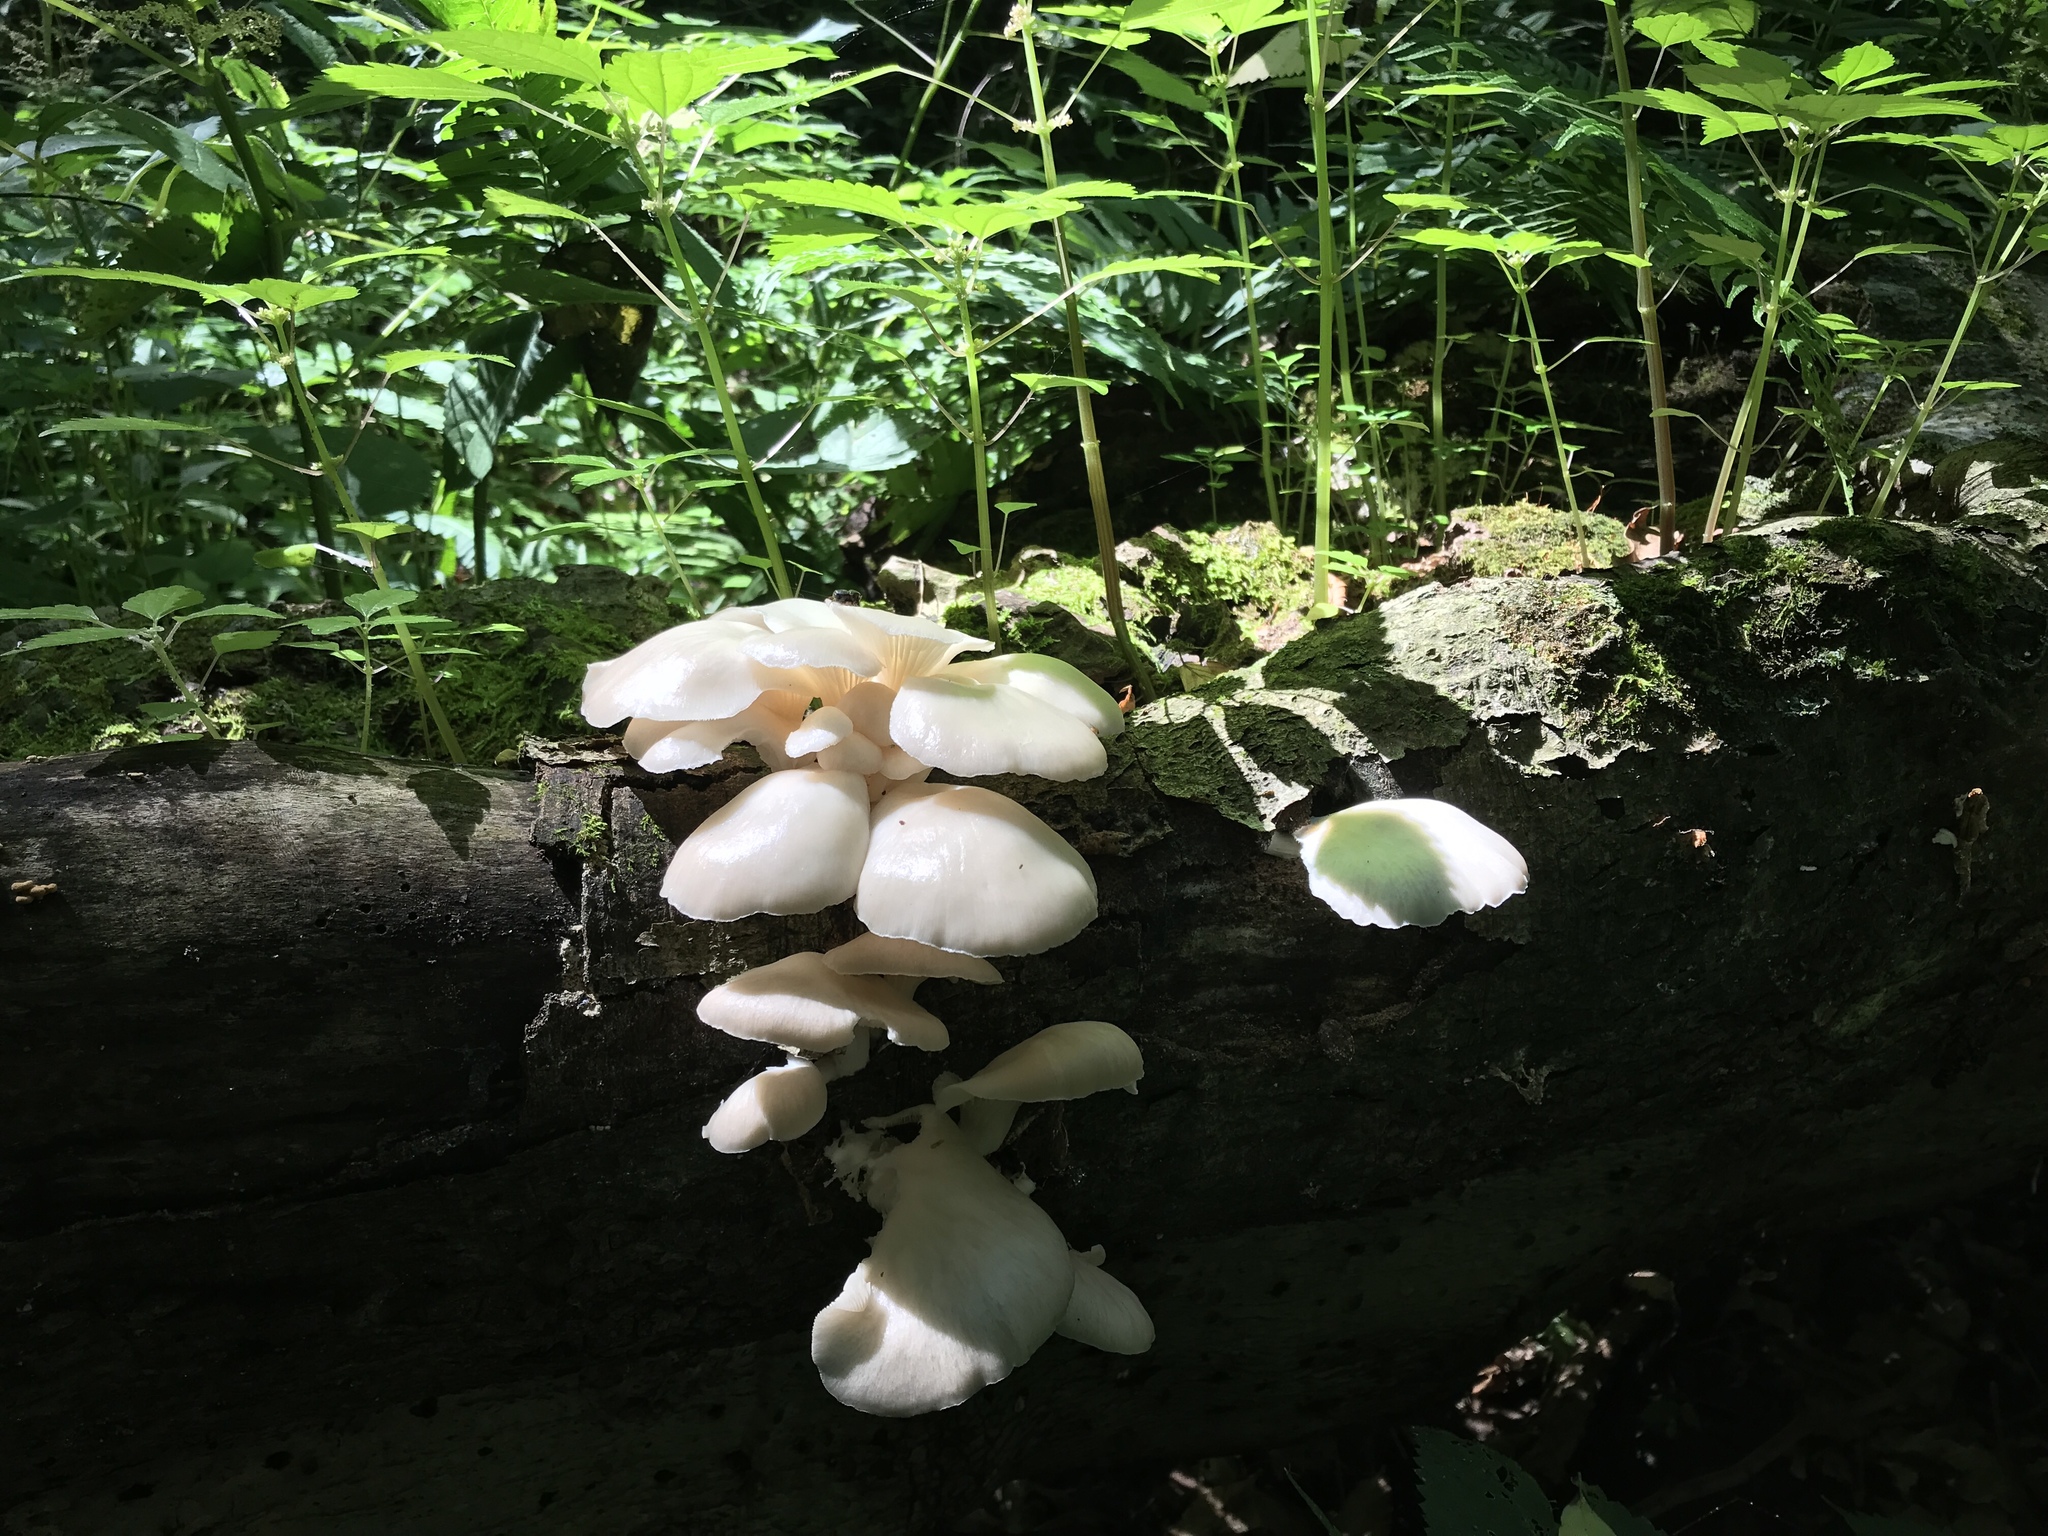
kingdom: Fungi
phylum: Basidiomycota
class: Agaricomycetes
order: Agaricales
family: Pleurotaceae
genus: Pleurotus
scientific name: Pleurotus pulmonarius
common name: Pale oyster
